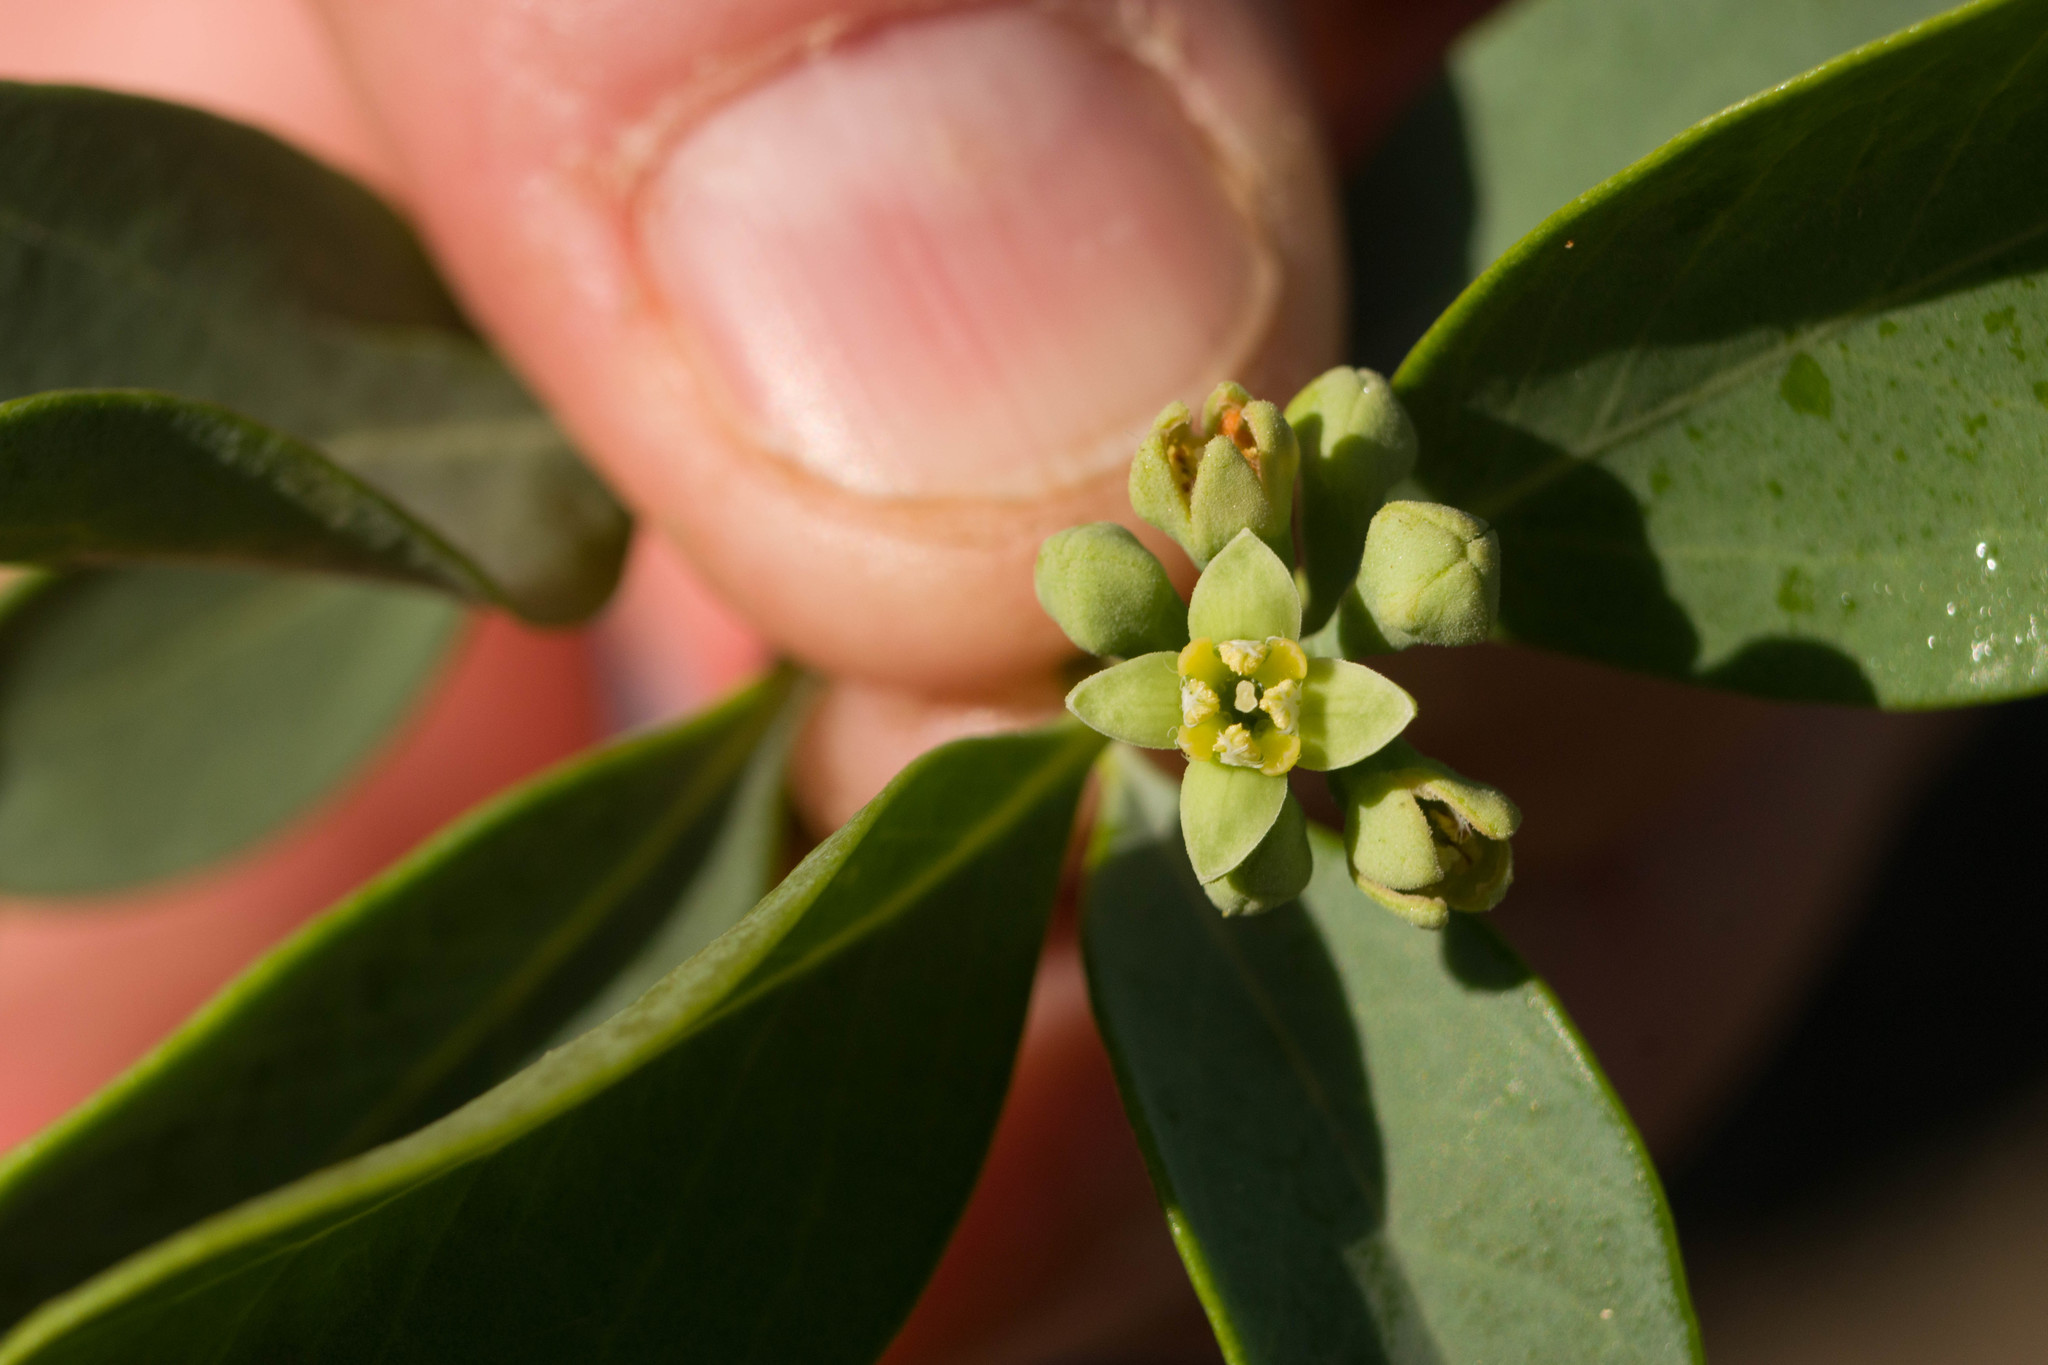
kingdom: Plantae
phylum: Tracheophyta
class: Magnoliopsida
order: Santalales
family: Santalaceae
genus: Santalum
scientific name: Santalum ellipticum
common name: Coast sandalwood
